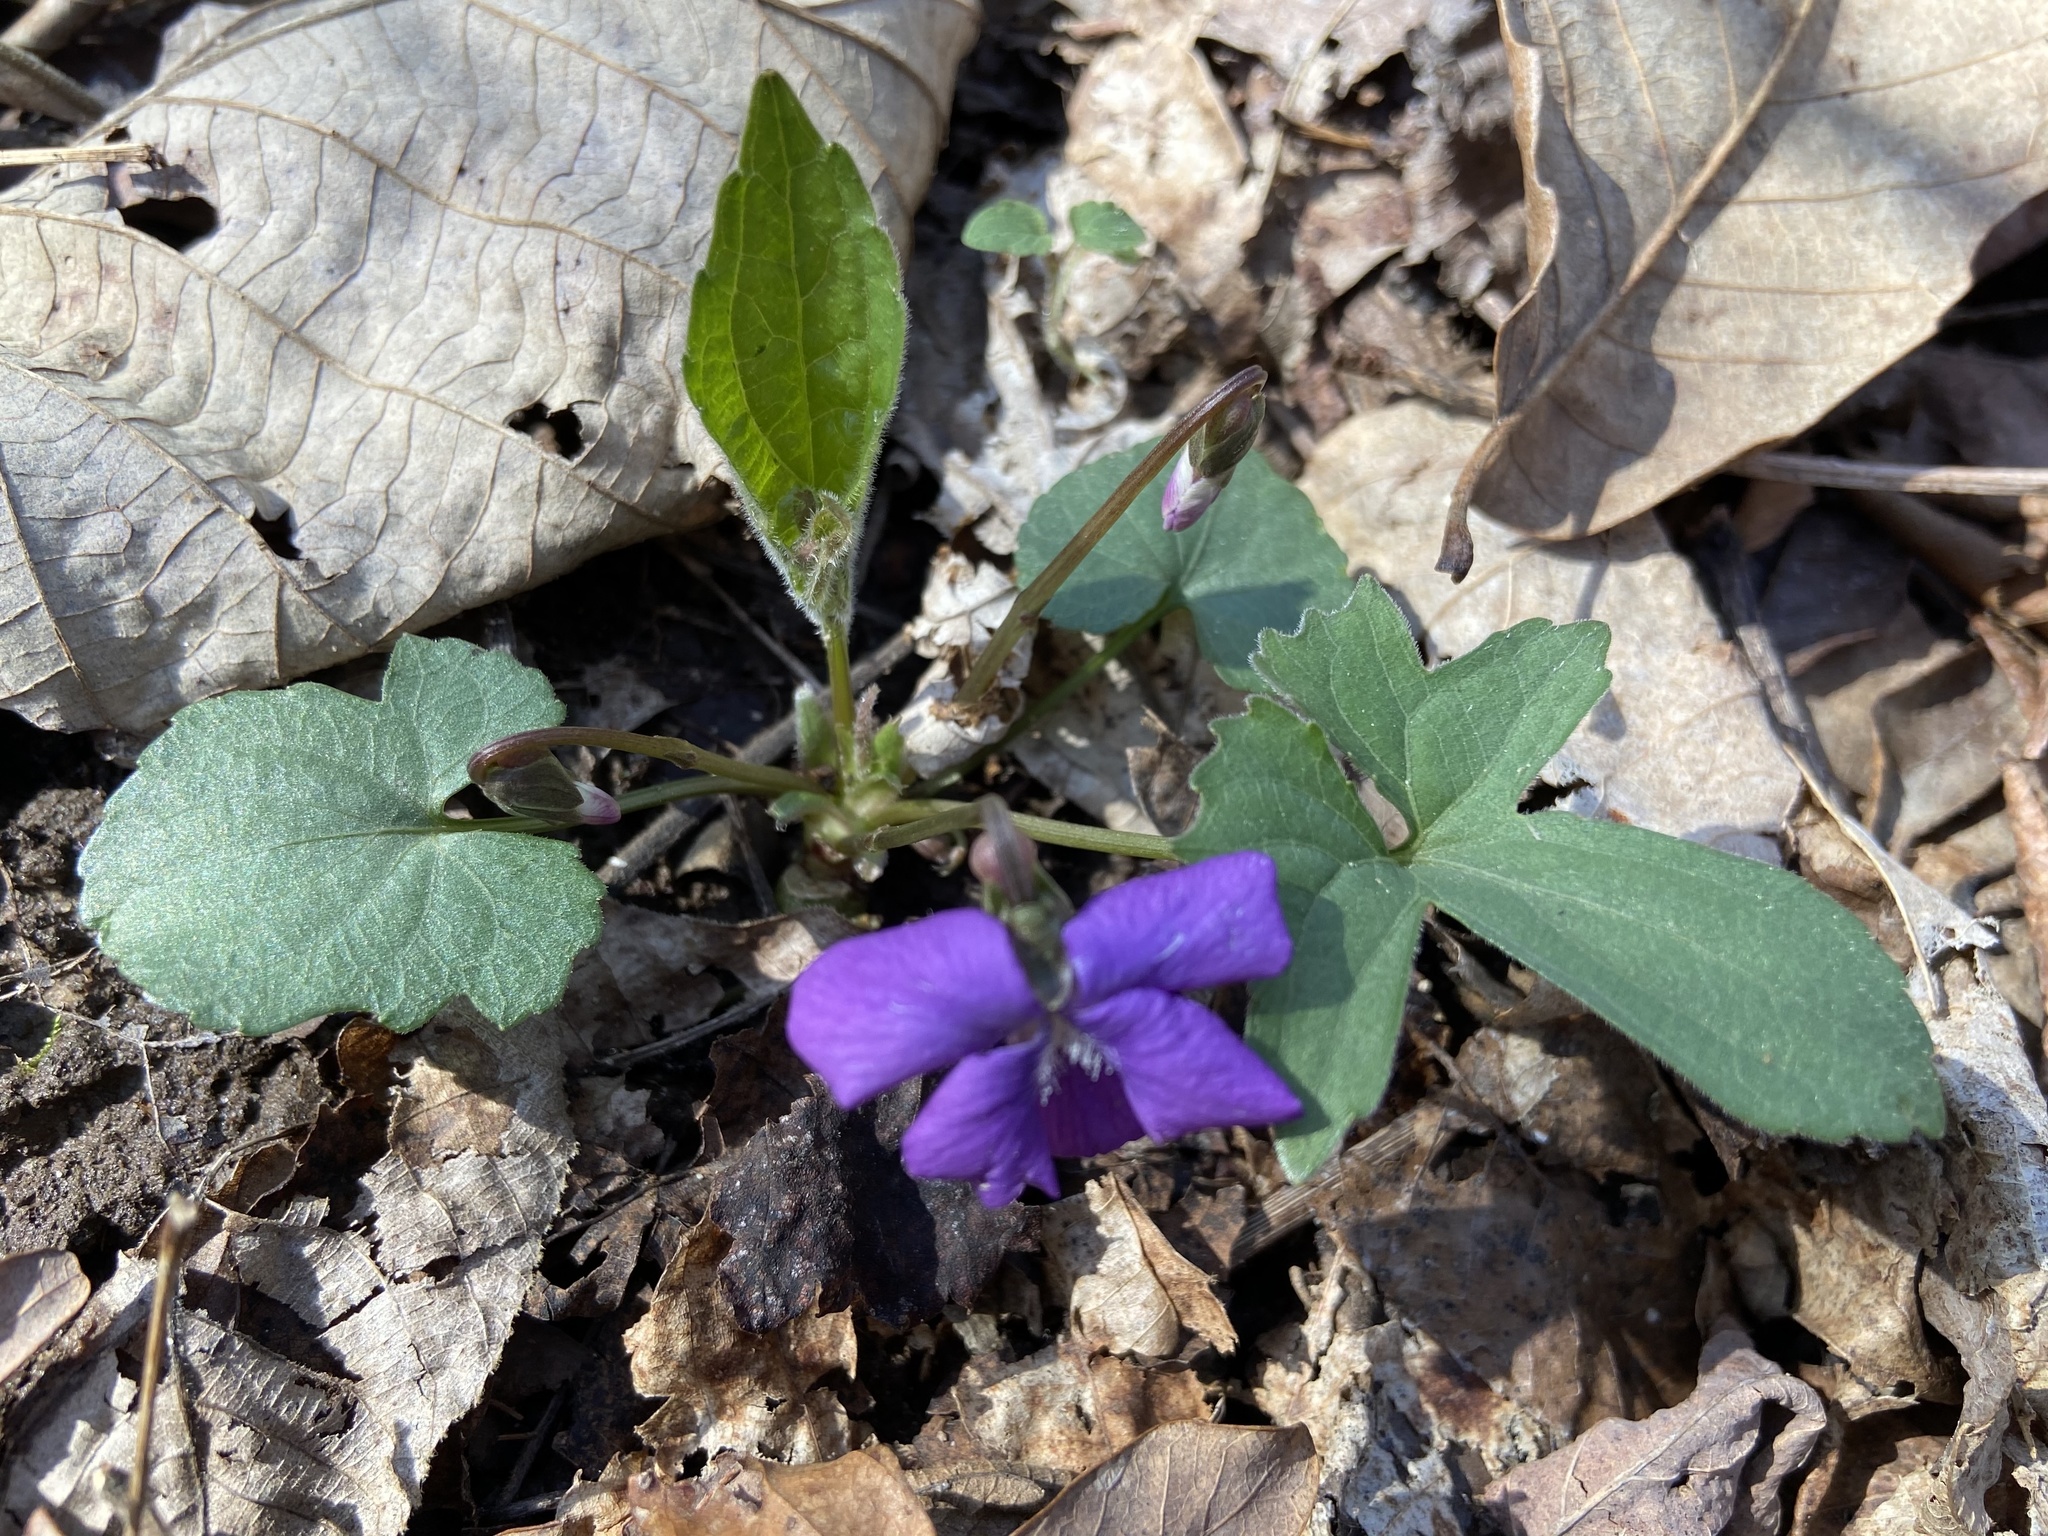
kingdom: Plantae
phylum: Tracheophyta
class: Magnoliopsida
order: Malpighiales
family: Violaceae
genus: Viola
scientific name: Viola palmata
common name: Early blue violet
